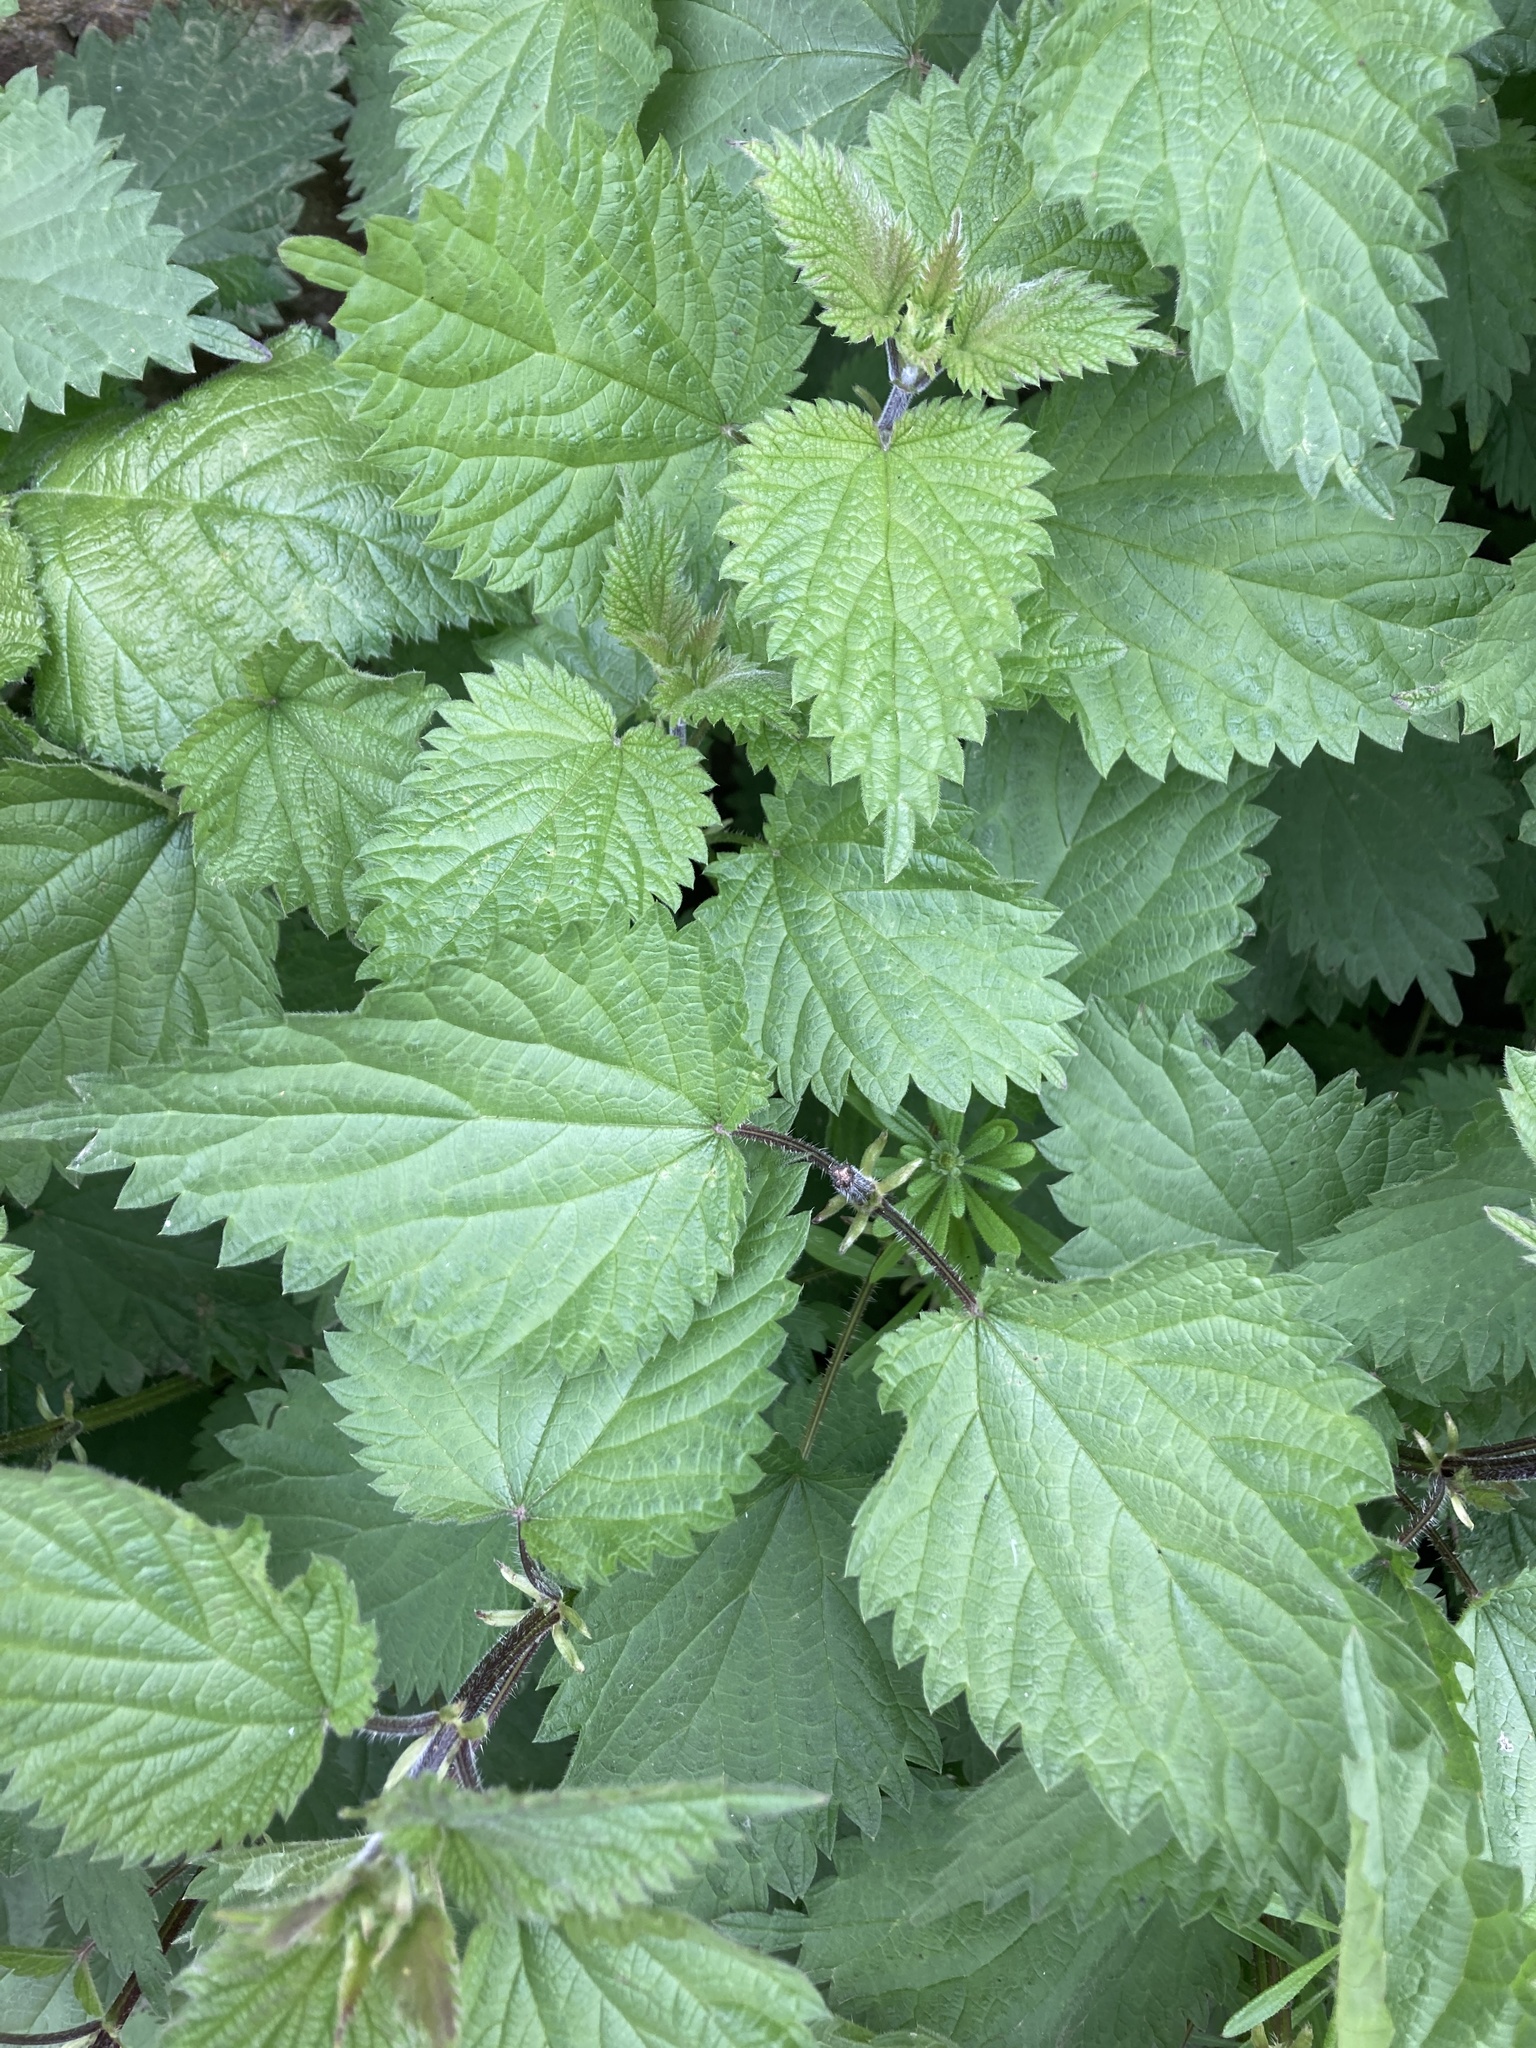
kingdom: Plantae
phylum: Tracheophyta
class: Magnoliopsida
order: Rosales
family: Urticaceae
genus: Urtica
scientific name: Urtica dioica
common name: Common nettle
